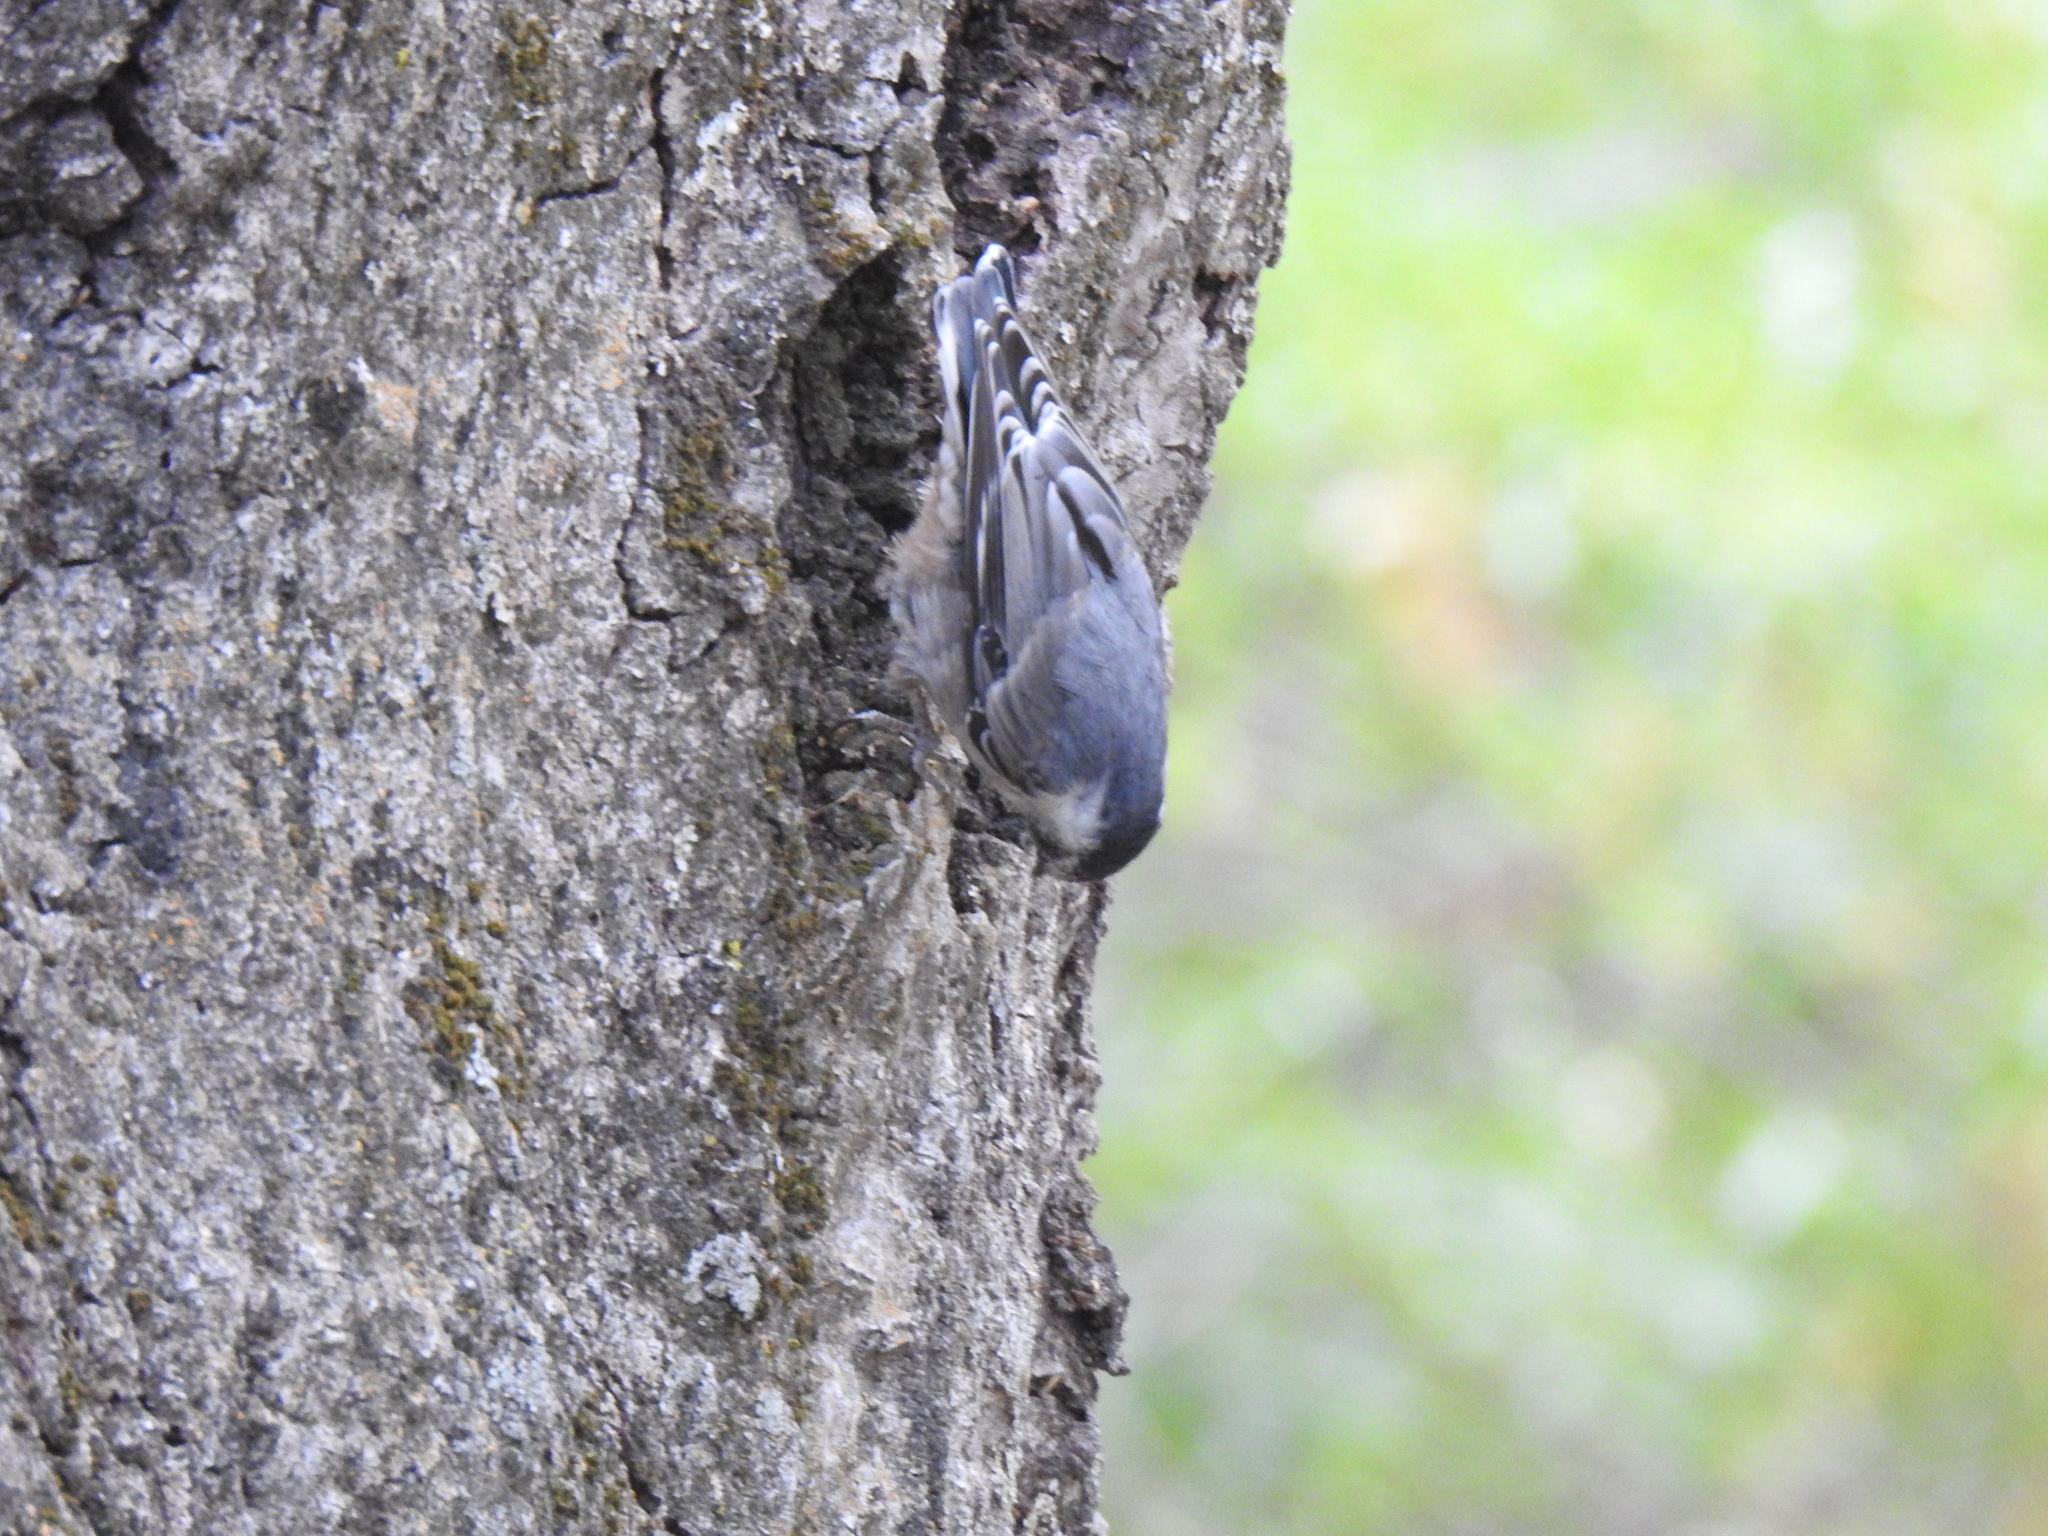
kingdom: Animalia
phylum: Chordata
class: Aves
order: Passeriformes
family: Sittidae
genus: Sitta
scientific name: Sitta carolinensis
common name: White-breasted nuthatch
